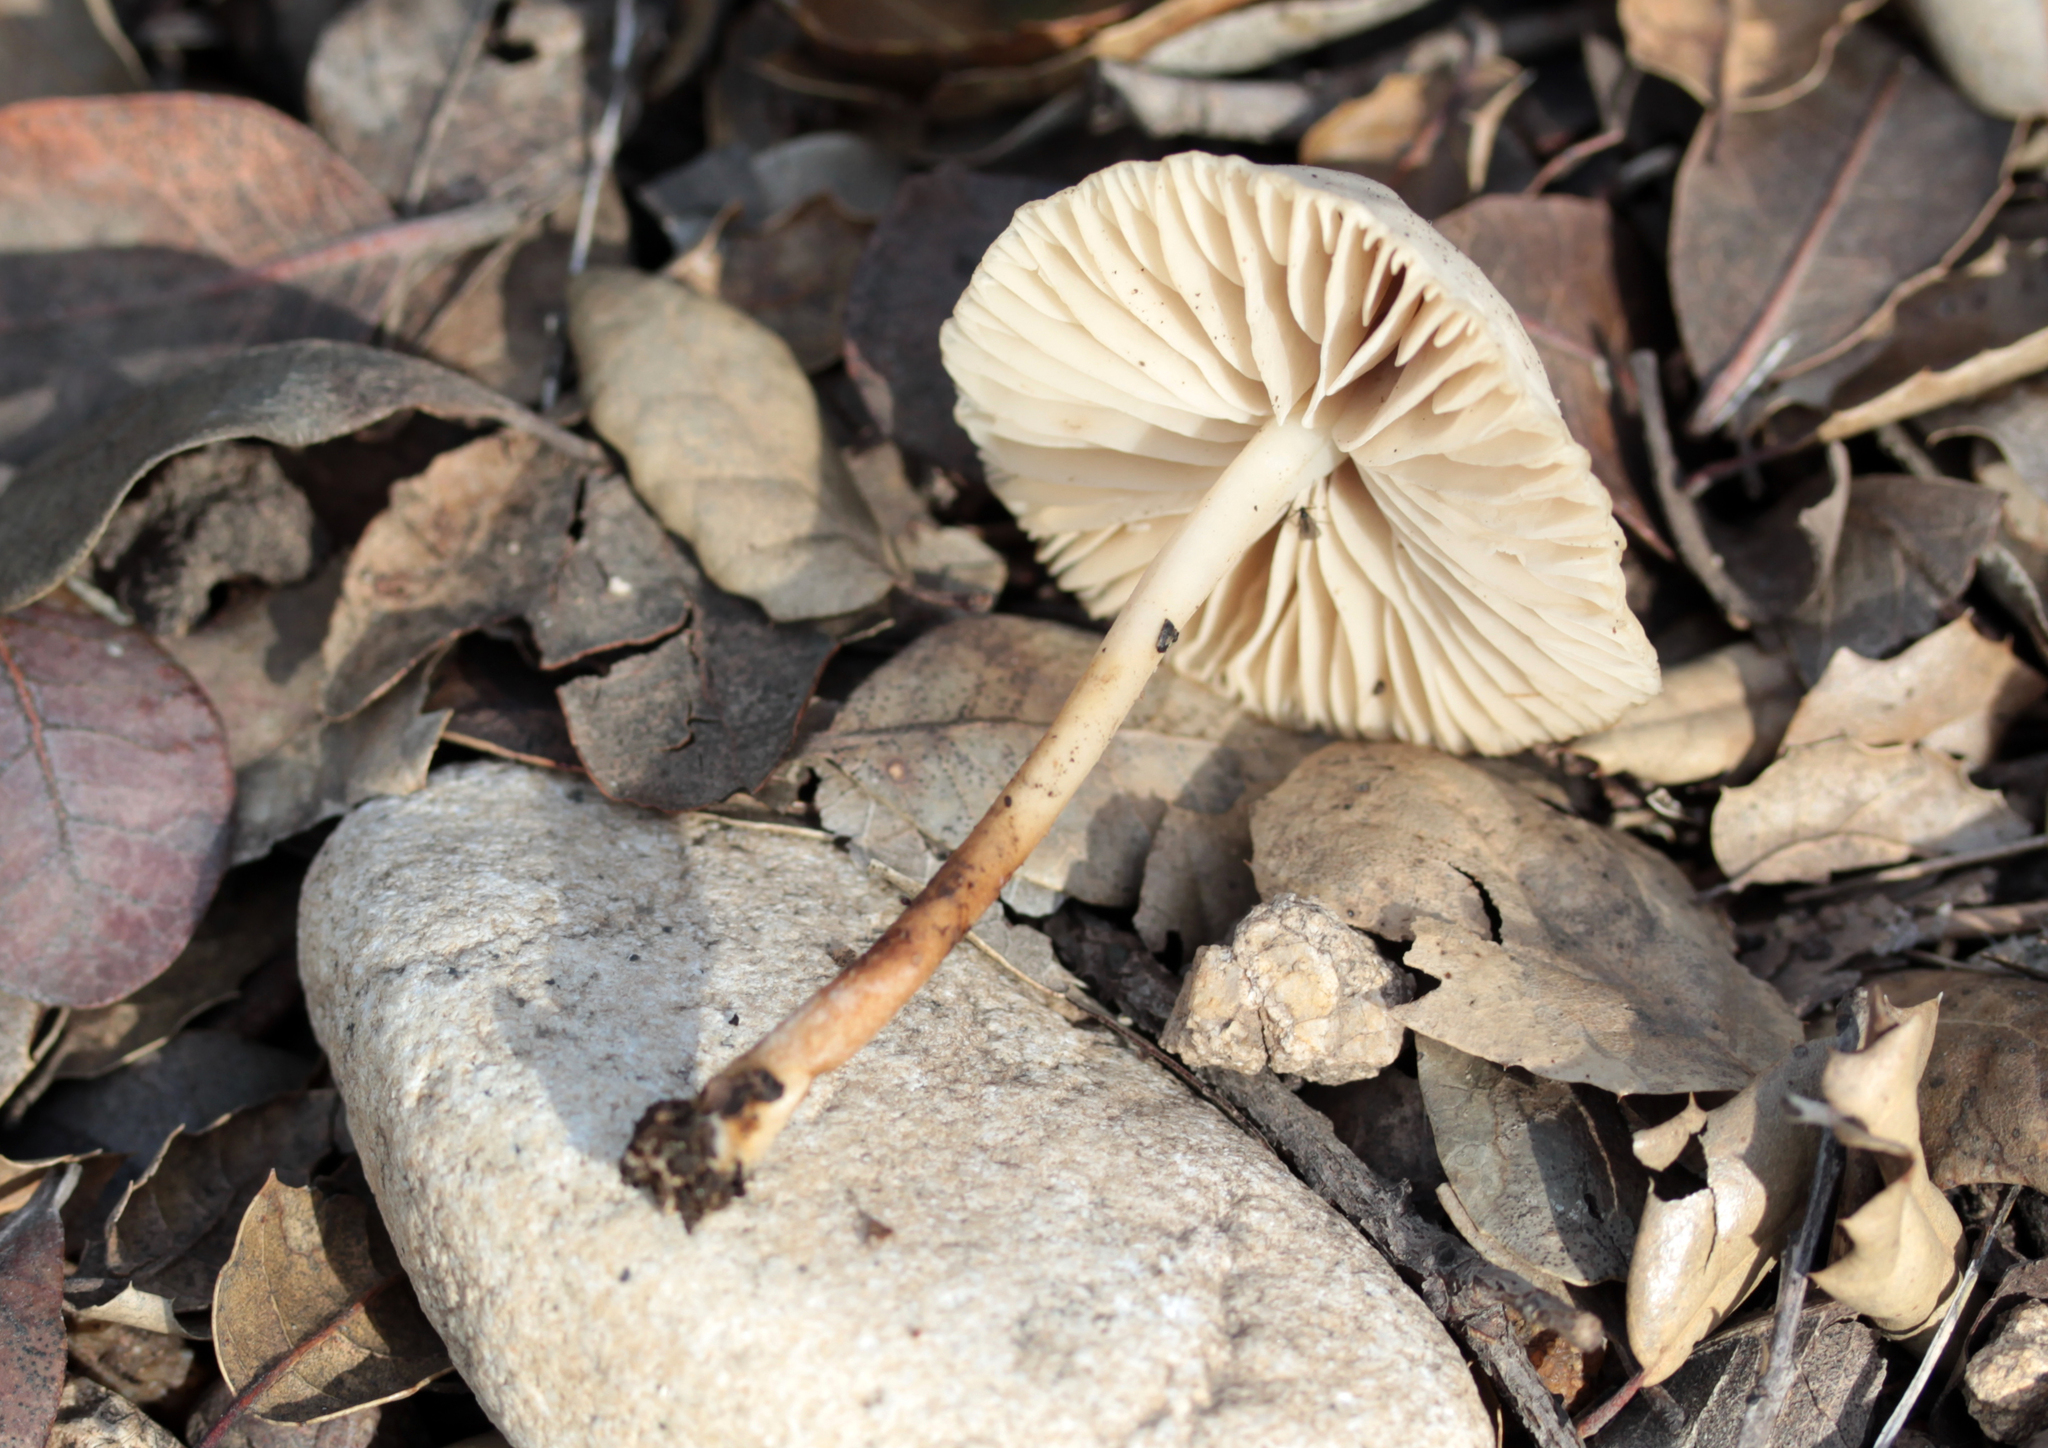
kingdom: Fungi
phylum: Basidiomycota
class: Agaricomycetes
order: Agaricales
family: Marasmiaceae
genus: Marasmius
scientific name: Marasmius albogriseus
